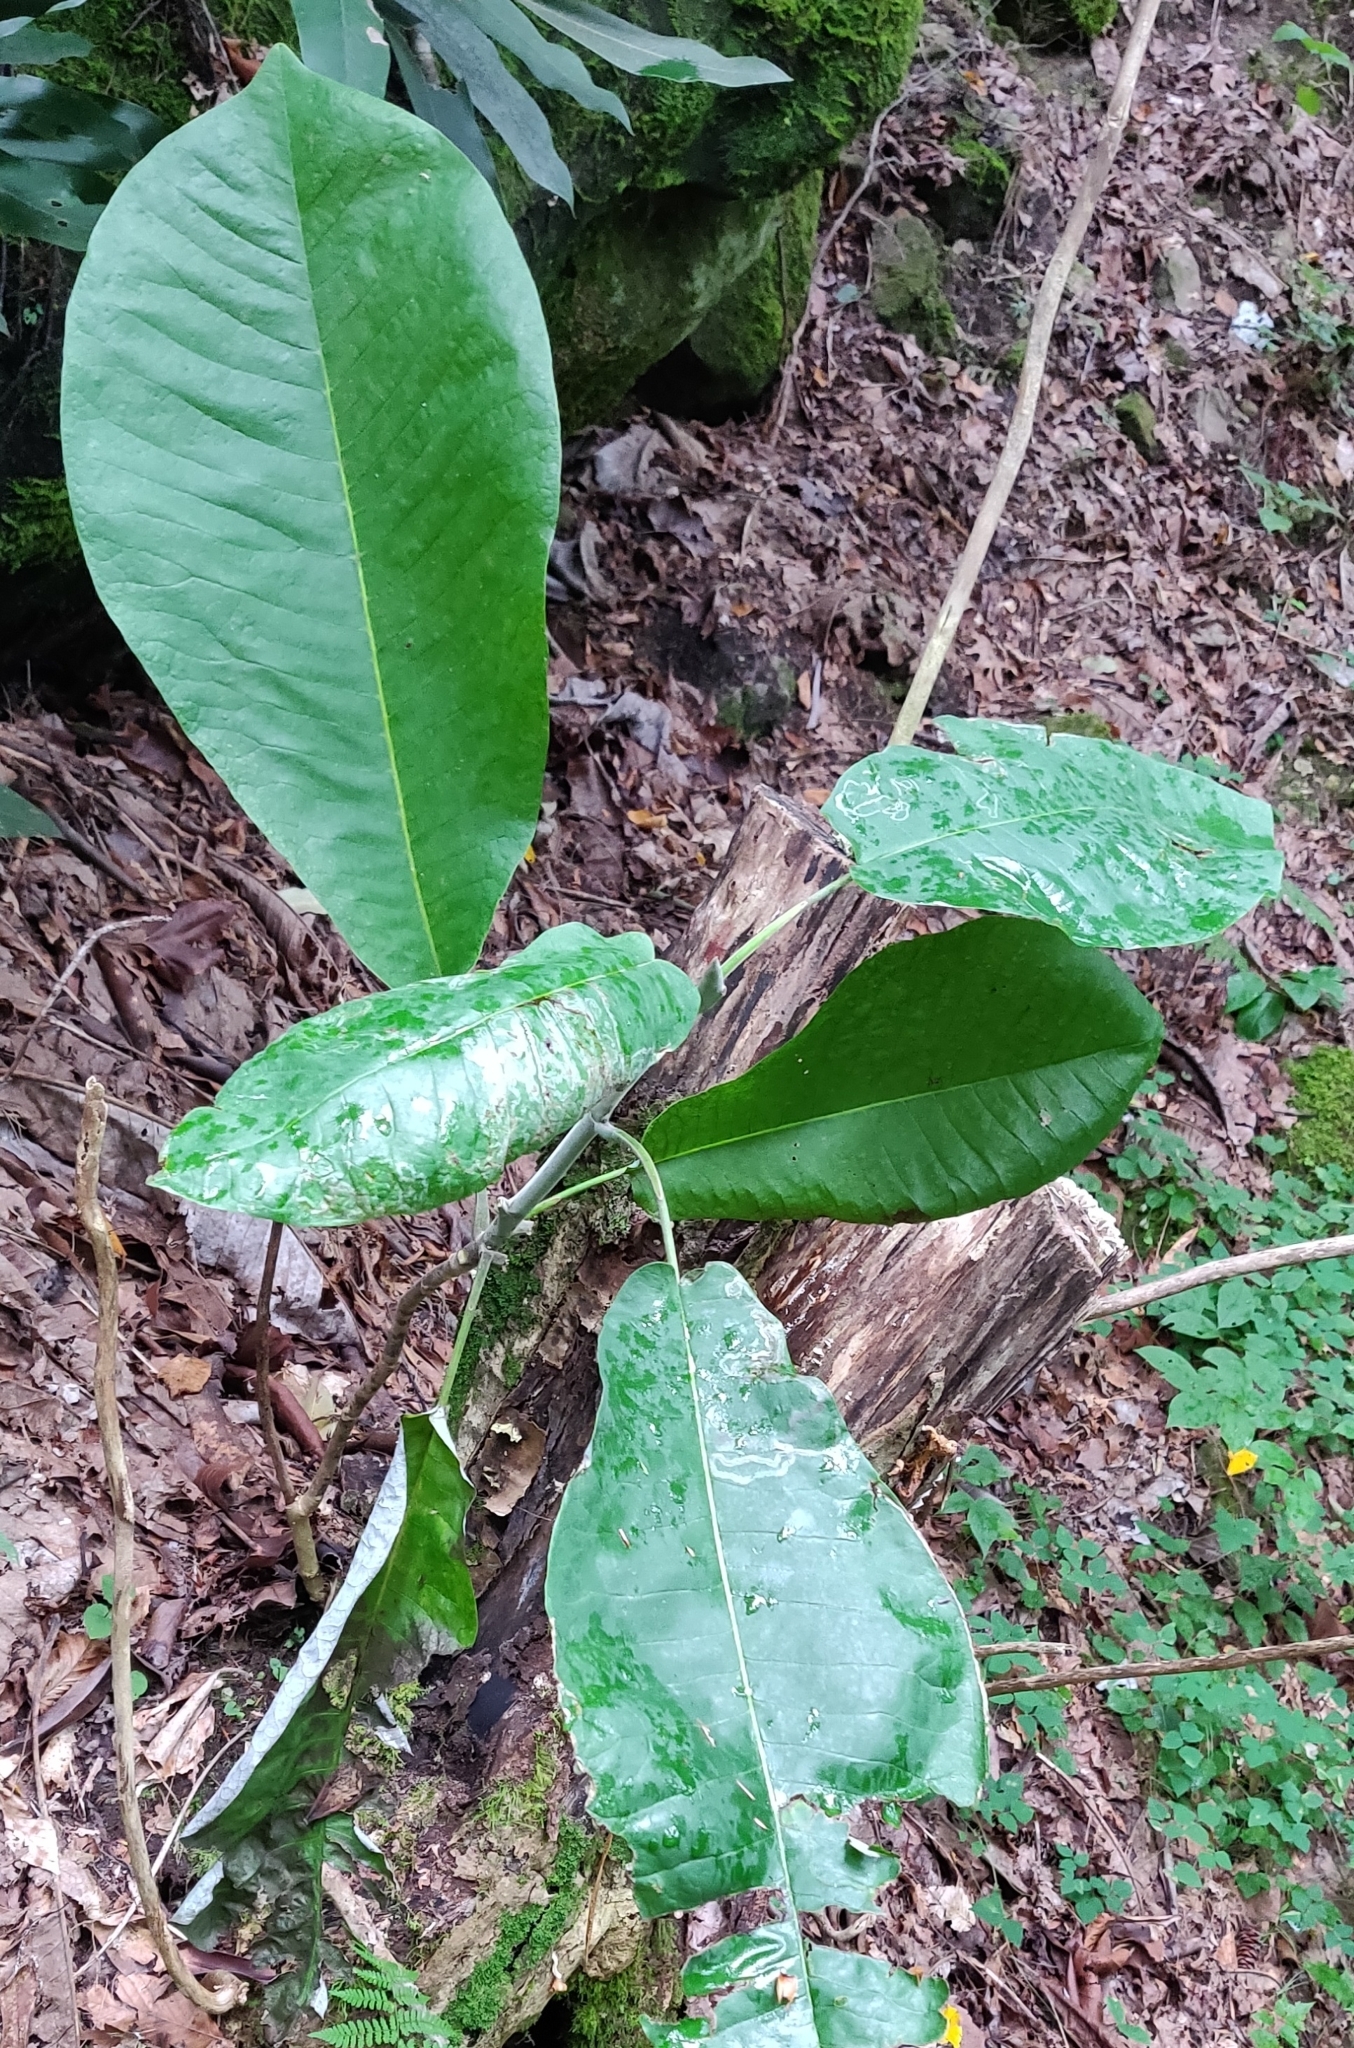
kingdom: Plantae
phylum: Tracheophyta
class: Magnoliopsida
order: Magnoliales
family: Magnoliaceae
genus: Magnolia
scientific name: Magnolia macrophylla
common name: Big-leaf magnolia
